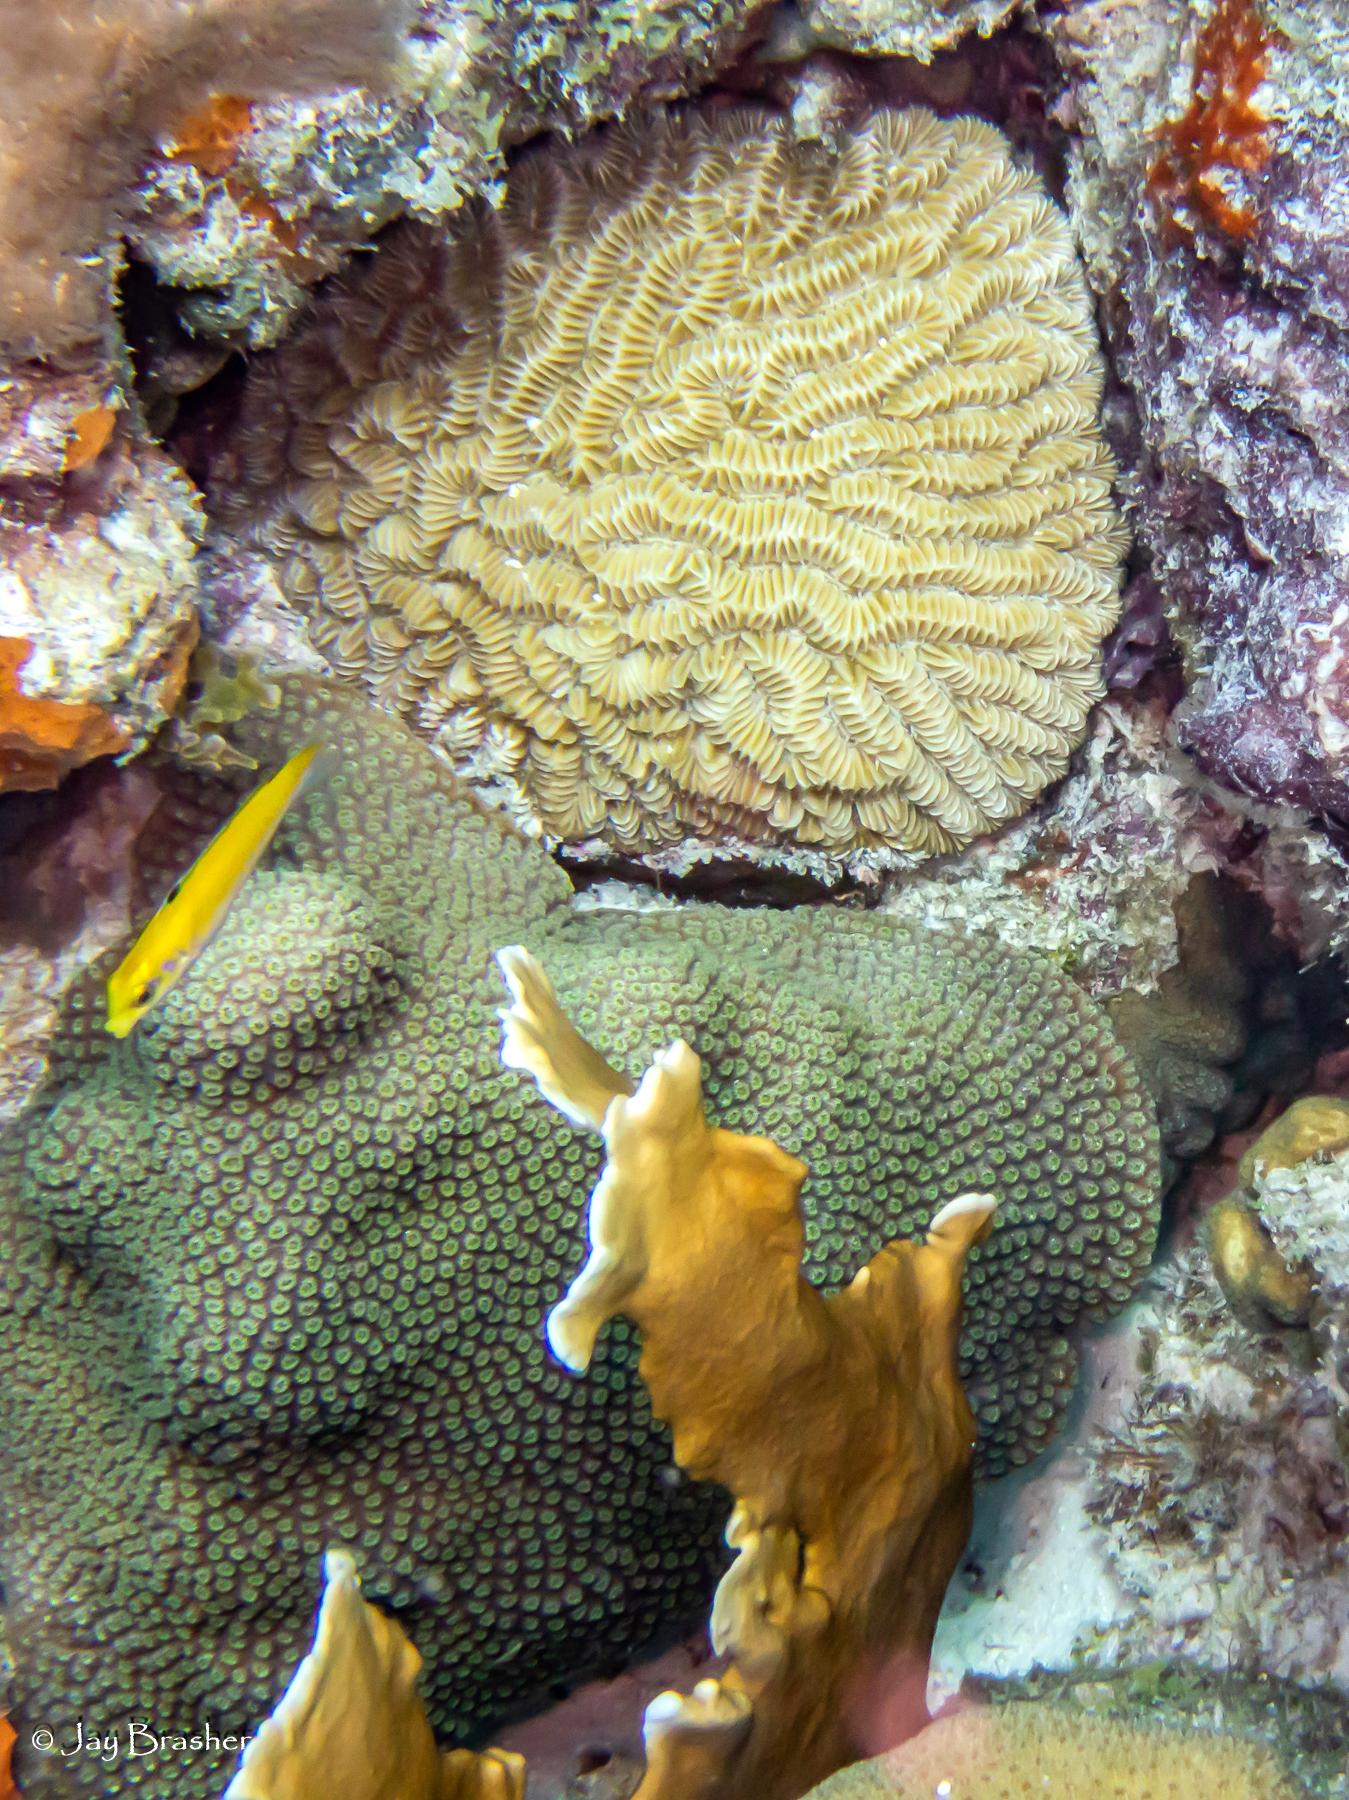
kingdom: Animalia
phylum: Chordata
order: Perciformes
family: Labridae
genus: Thalassoma
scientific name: Thalassoma bifasciatum
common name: Bluehead wrasse
